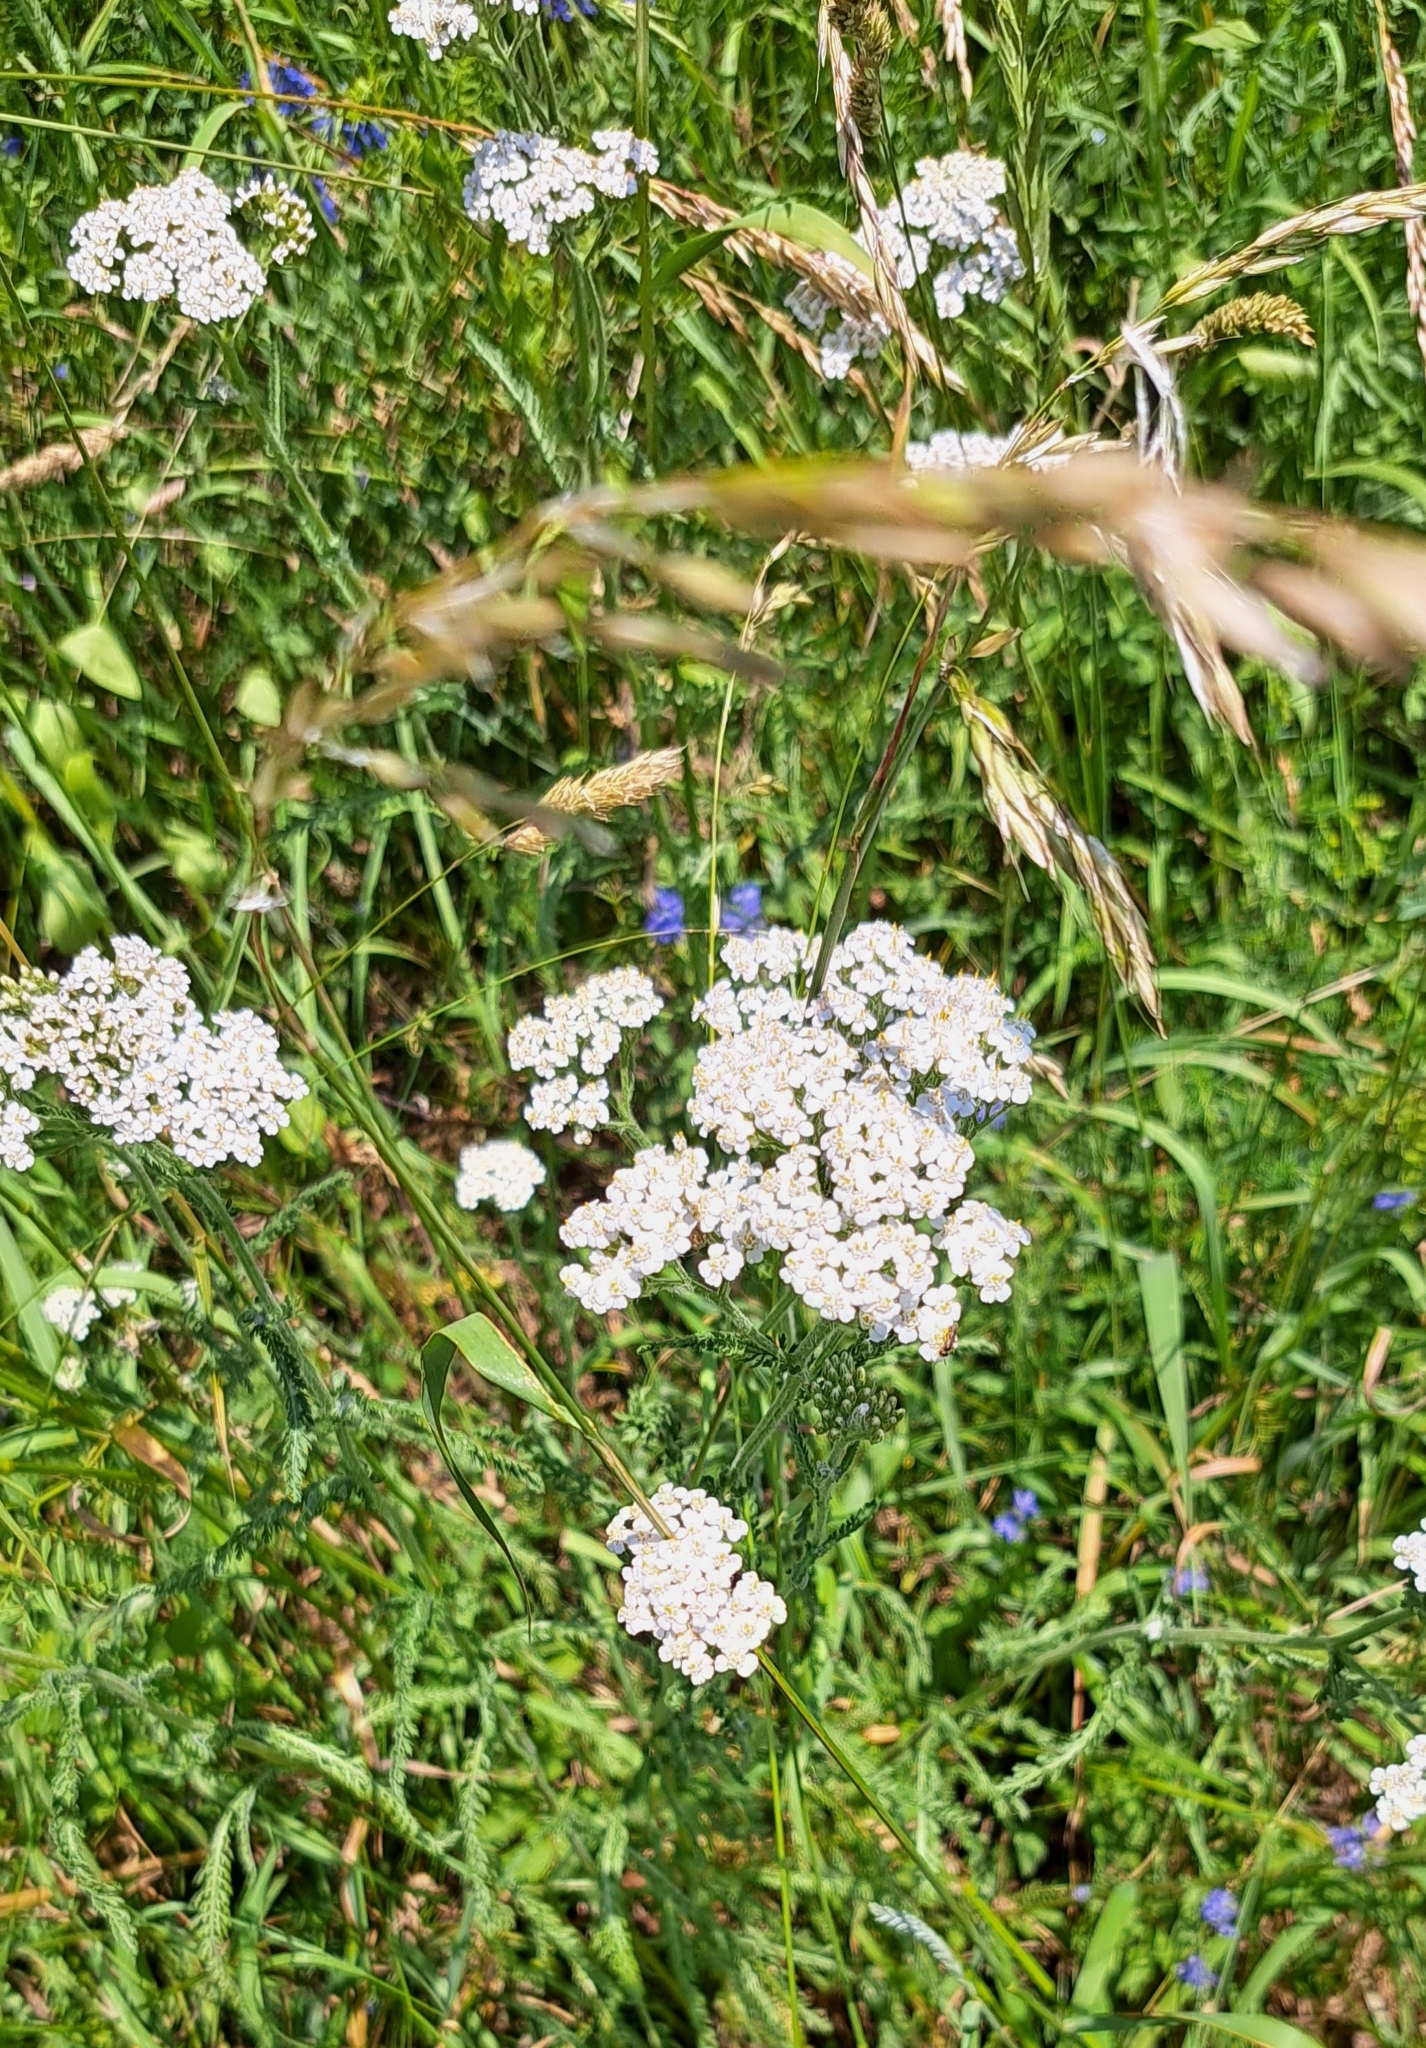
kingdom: Plantae
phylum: Tracheophyta
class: Magnoliopsida
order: Asterales
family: Asteraceae
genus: Achillea
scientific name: Achillea millefolium
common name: Yarrow
